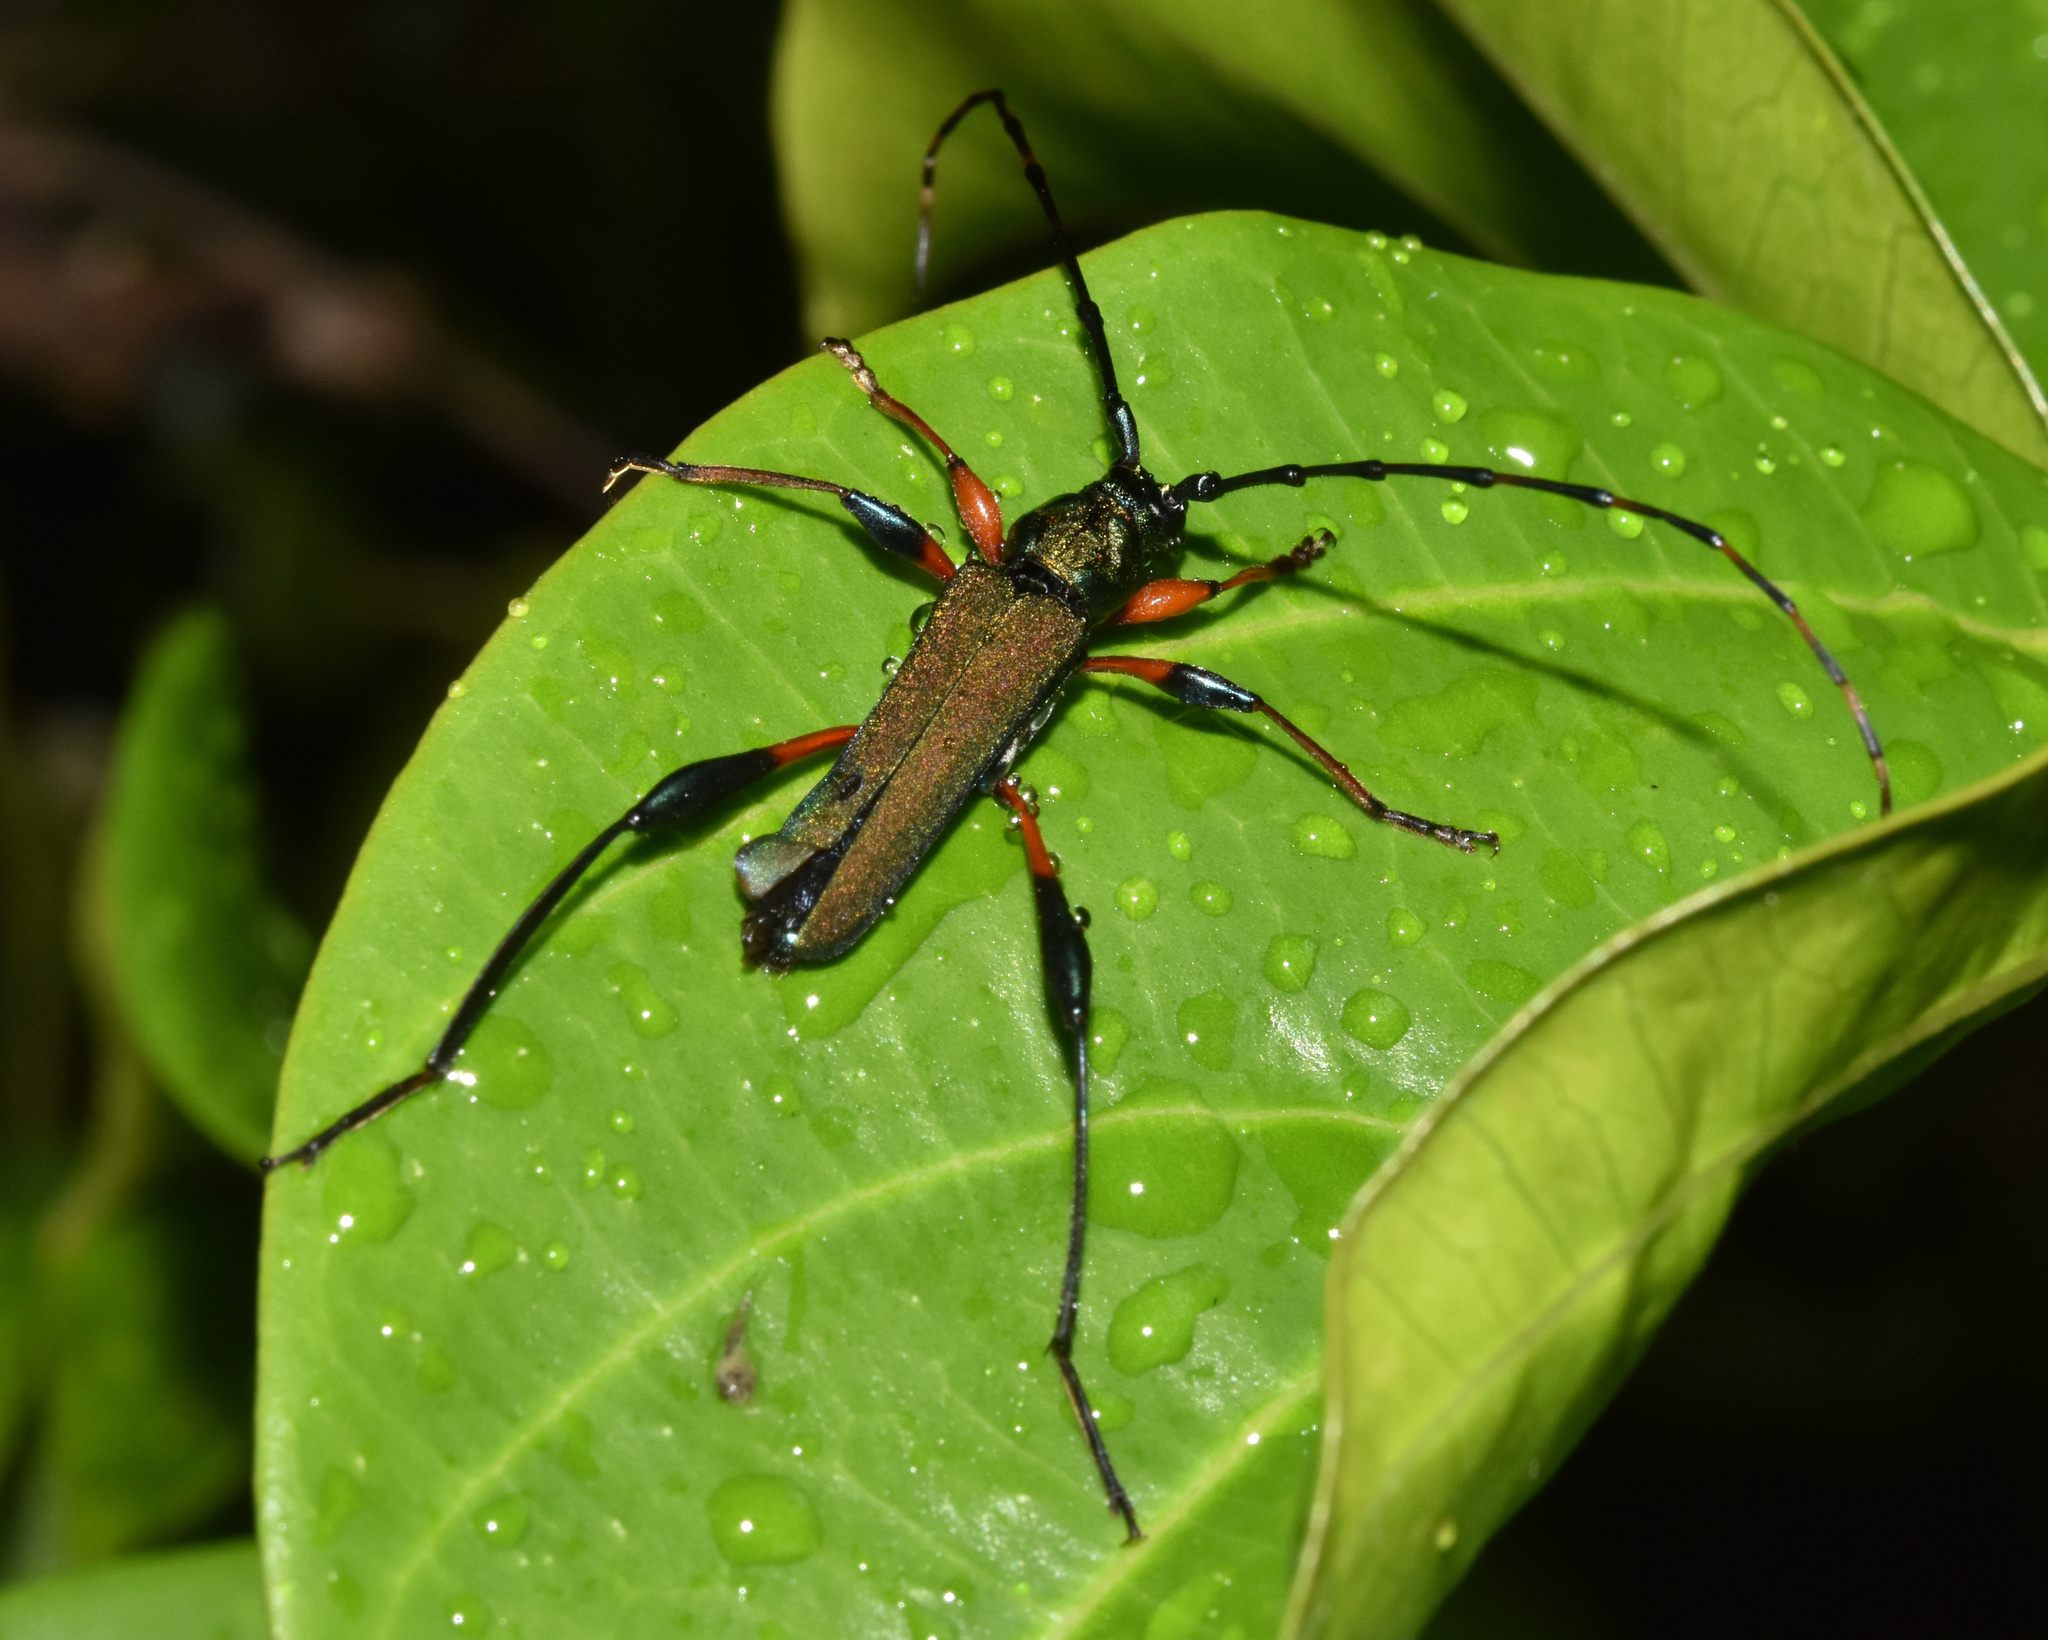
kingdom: Animalia
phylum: Arthropoda
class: Insecta
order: Coleoptera
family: Cerambycidae
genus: Litopus
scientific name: Litopus latipes
